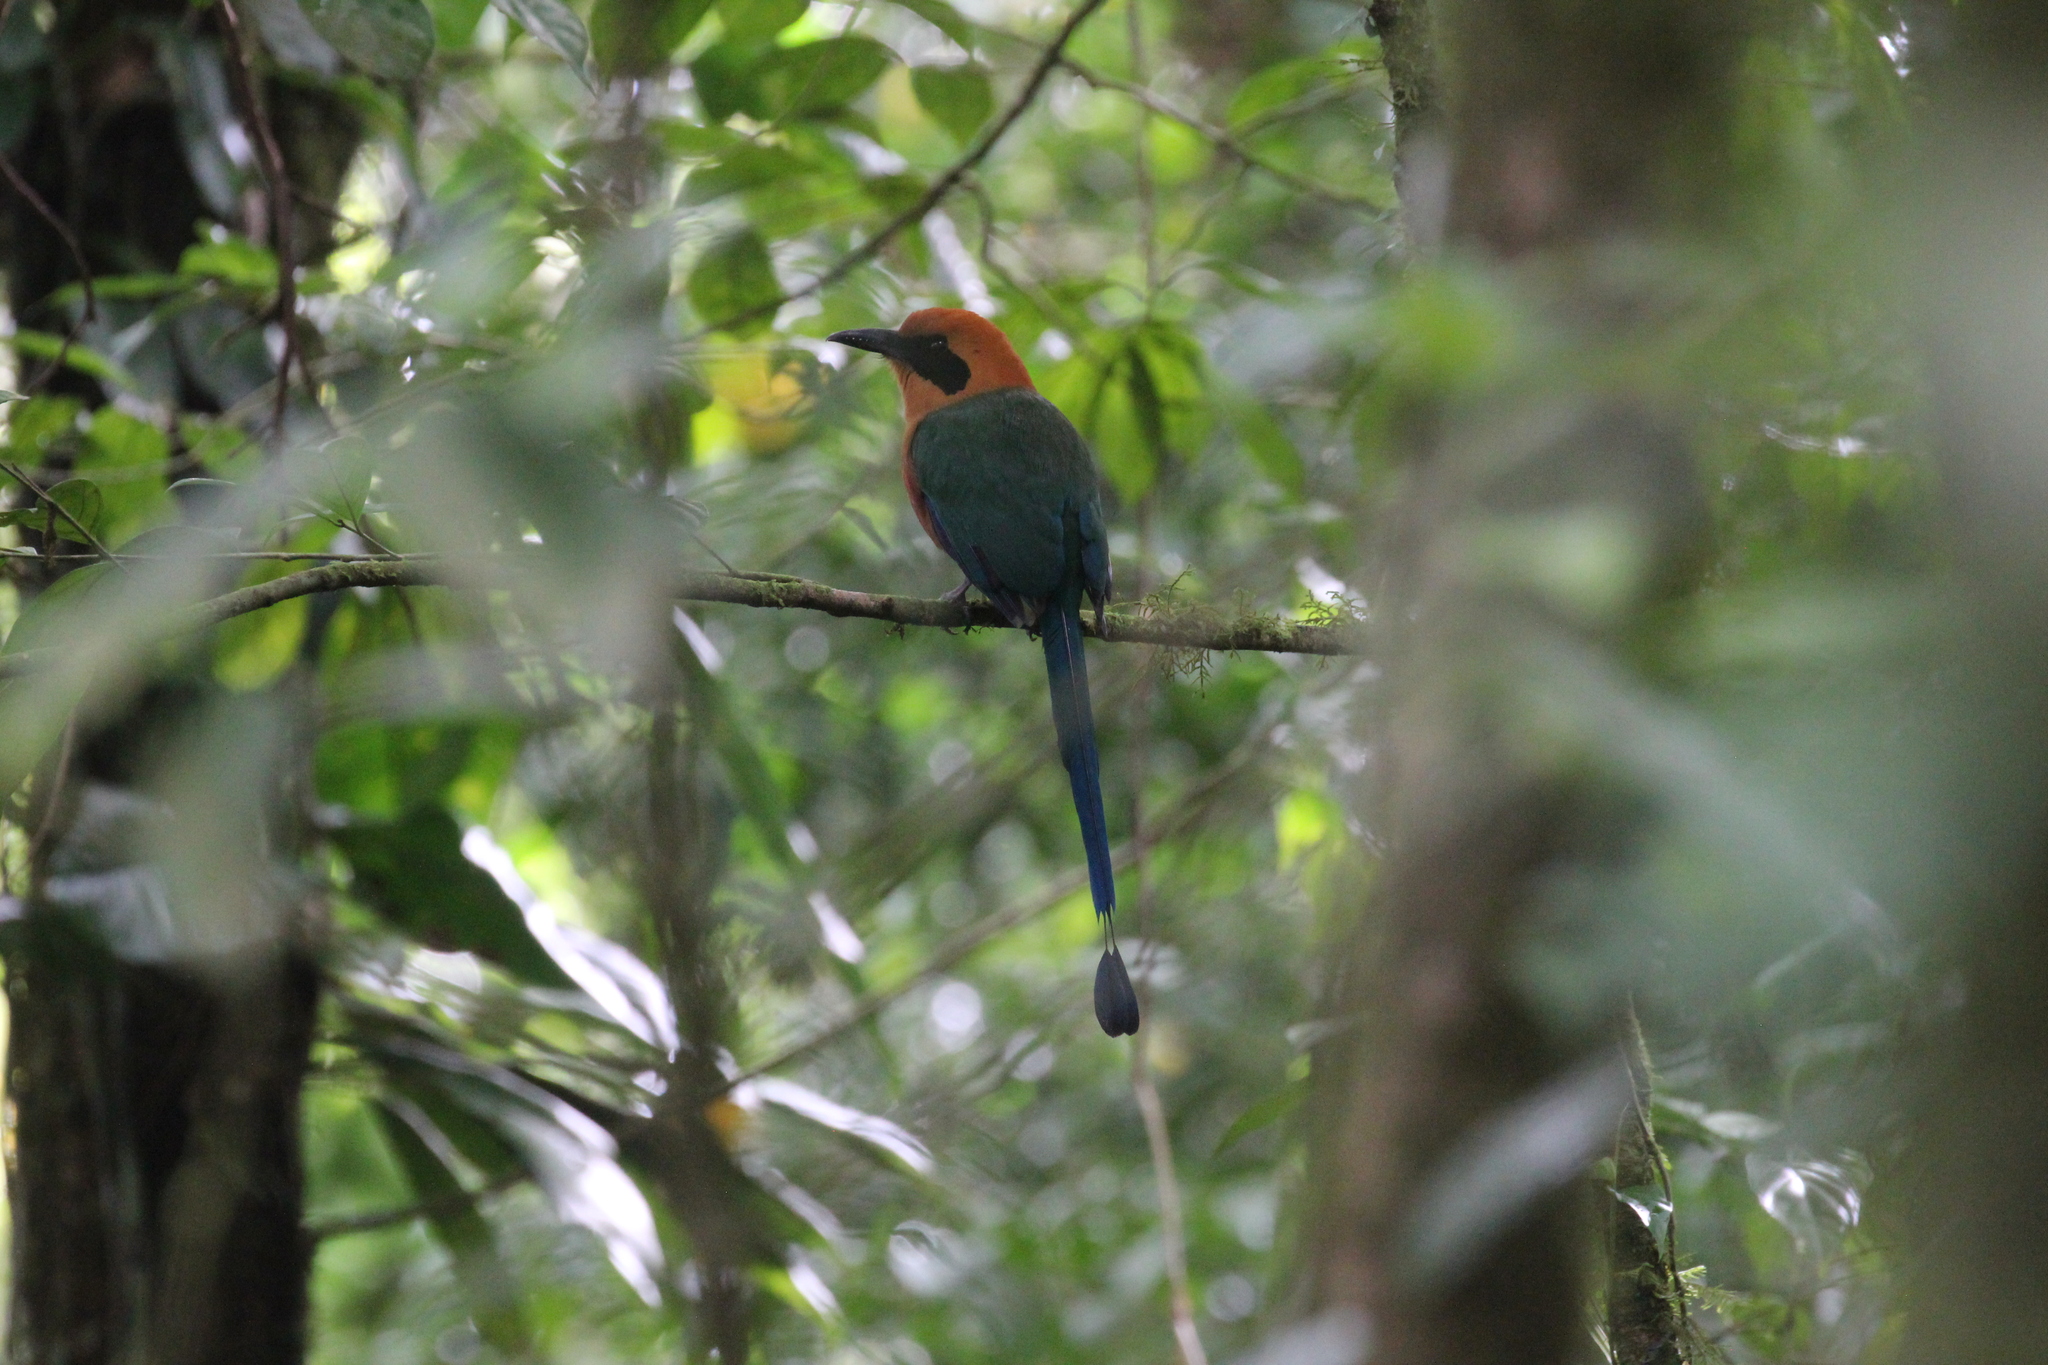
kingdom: Animalia
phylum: Chordata
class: Aves
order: Coraciiformes
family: Momotidae
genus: Baryphthengus
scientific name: Baryphthengus martii
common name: Rufous motmot
